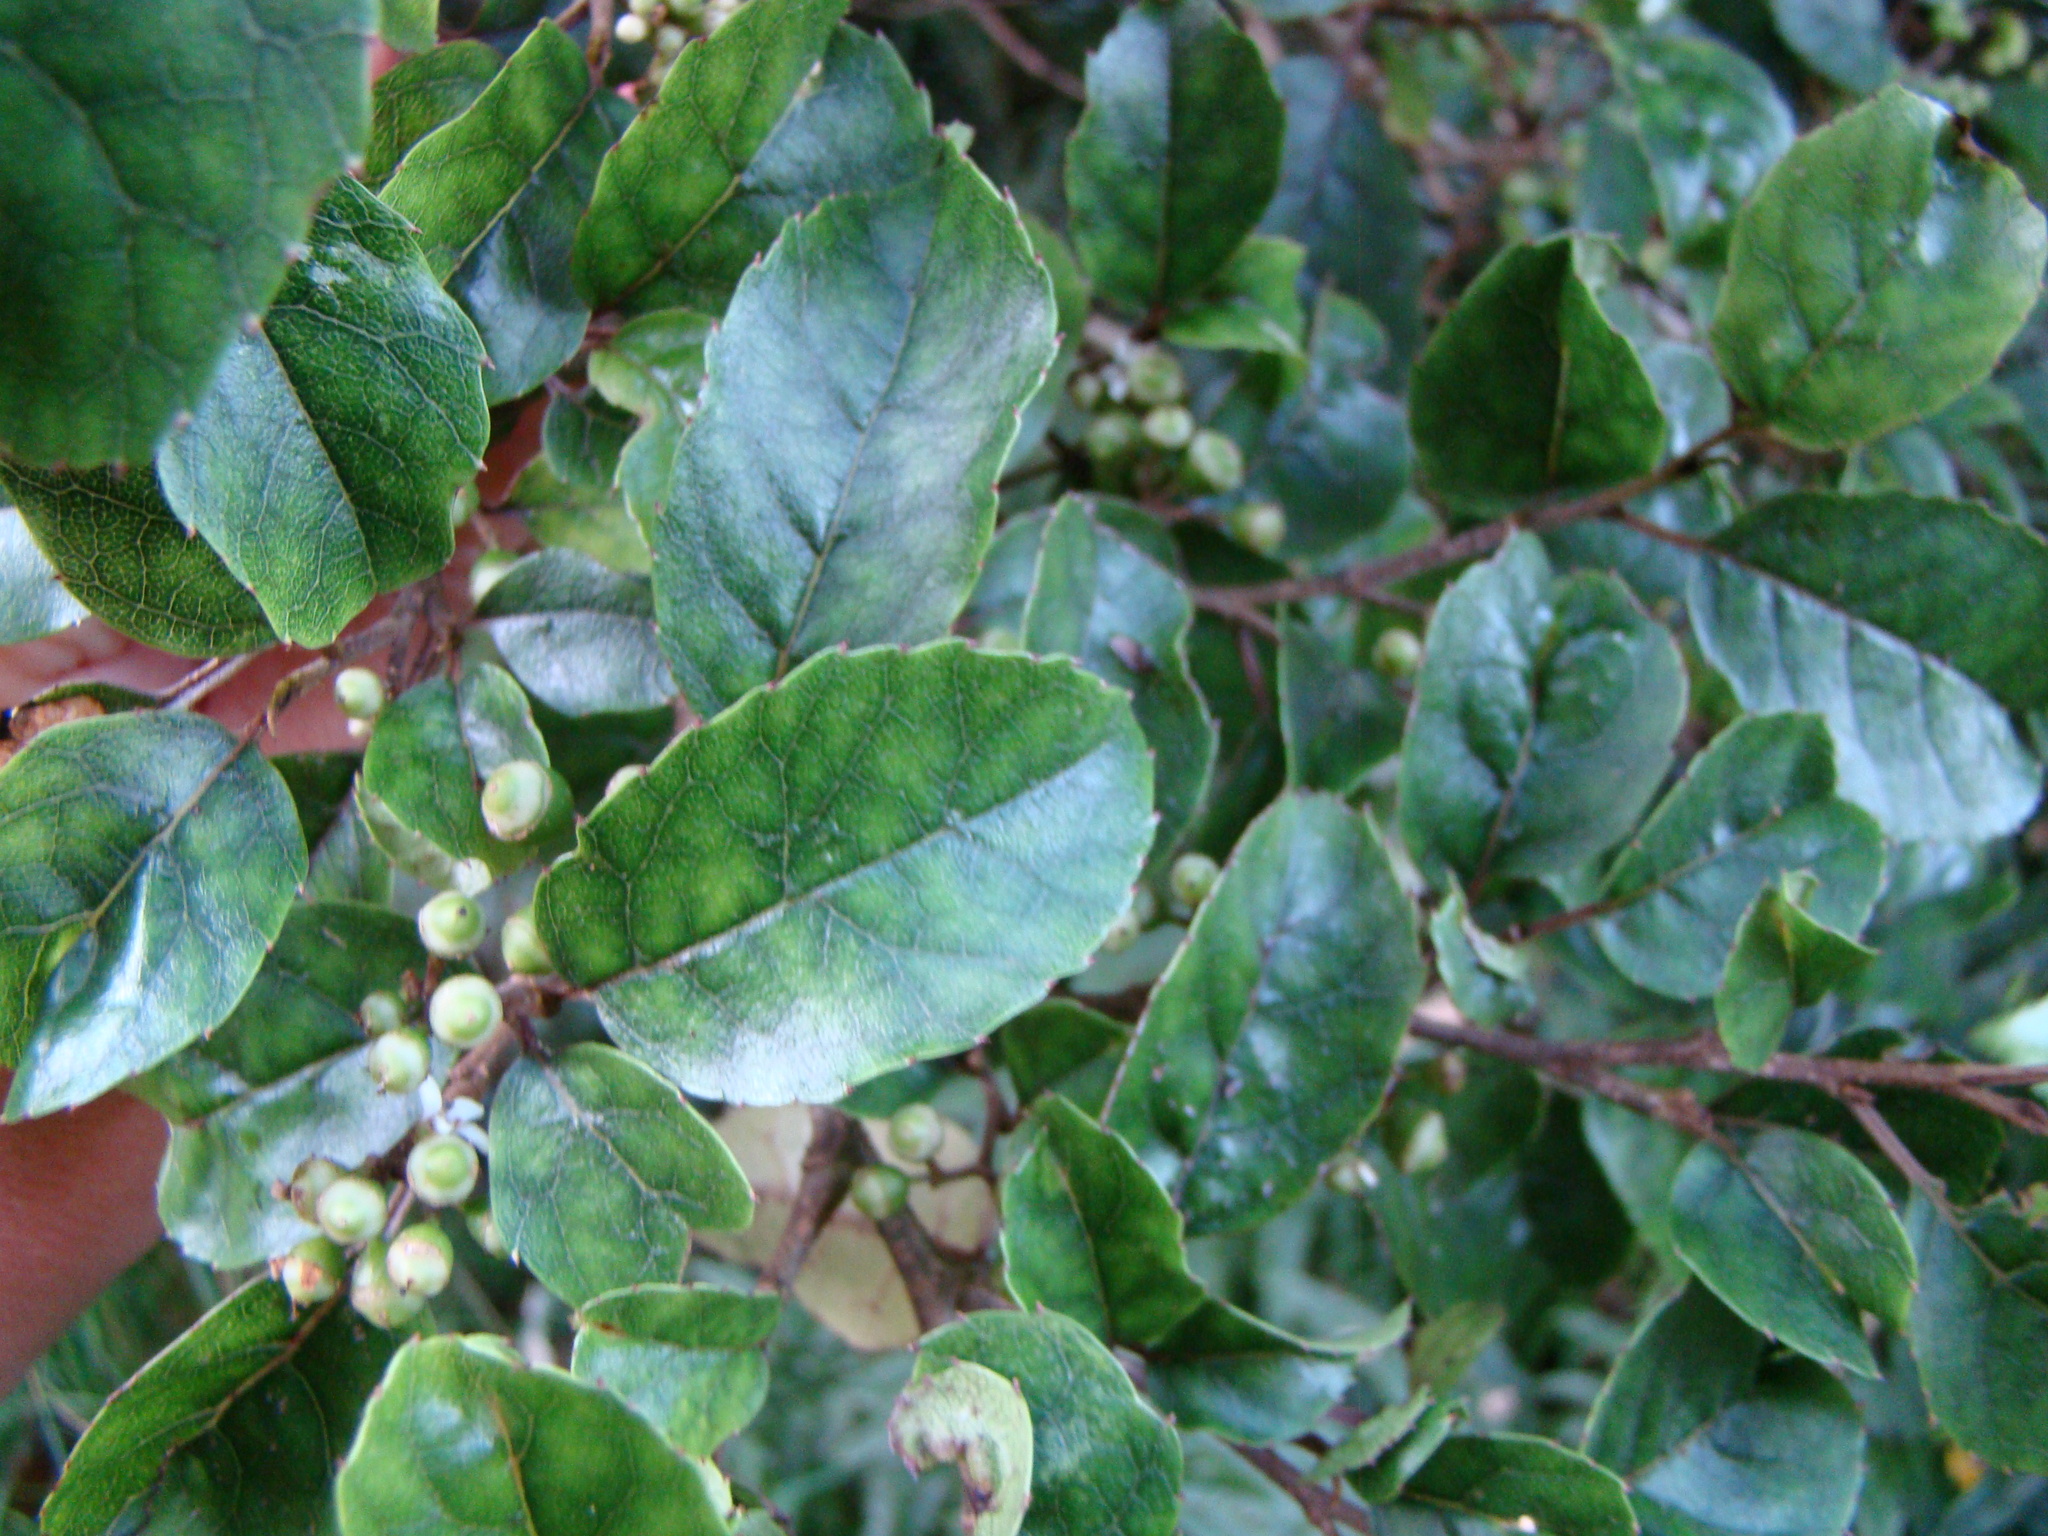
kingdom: Plantae
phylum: Tracheophyta
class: Magnoliopsida
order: Asterales
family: Rousseaceae
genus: Carpodetus
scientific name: Carpodetus serratus
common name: White mapau
